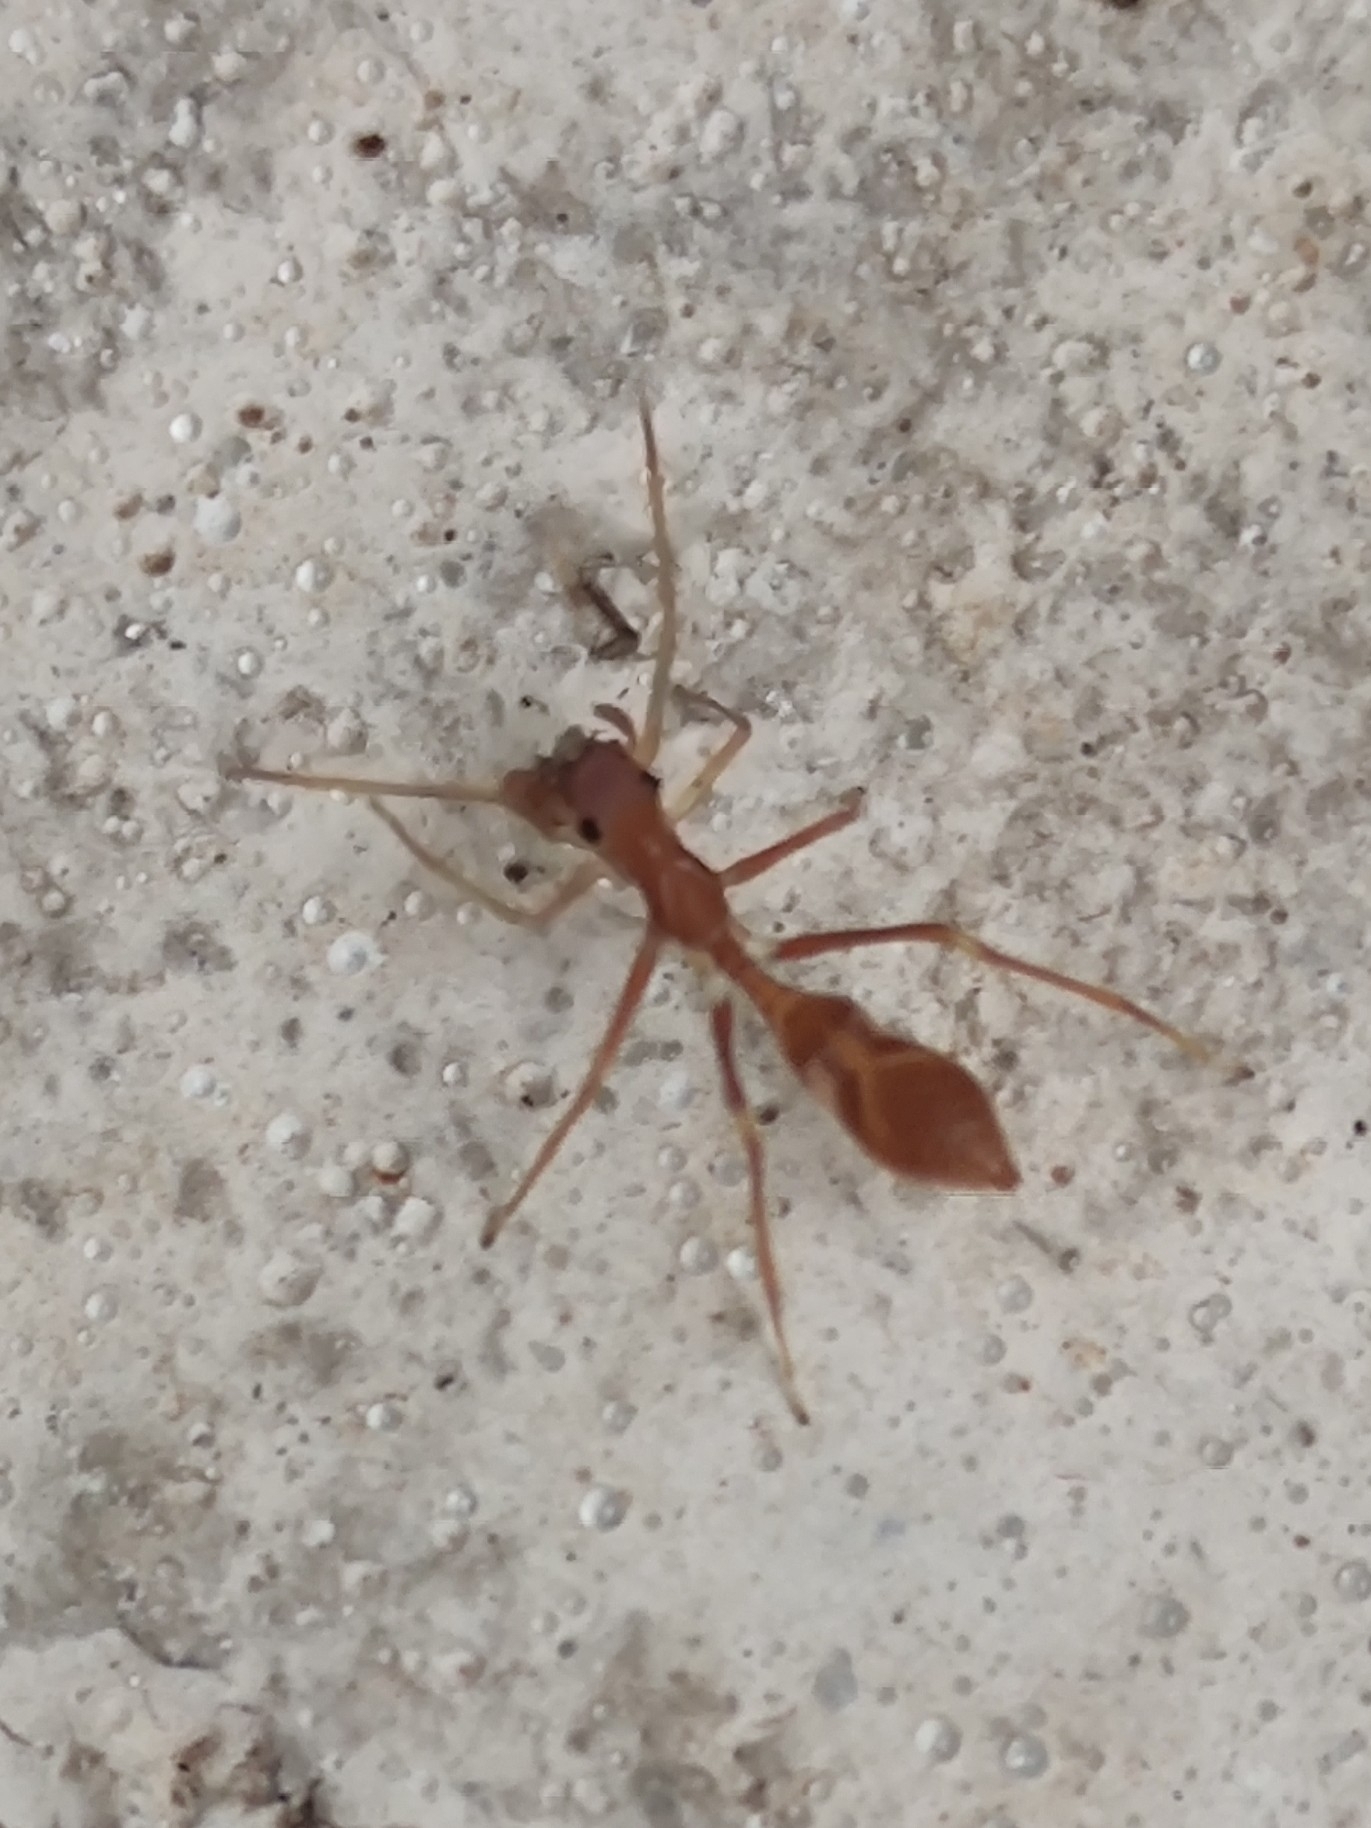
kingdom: Animalia
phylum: Arthropoda
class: Arachnida
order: Araneae
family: Salticidae
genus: Myrmaplata
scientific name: Myrmaplata plataleoides
